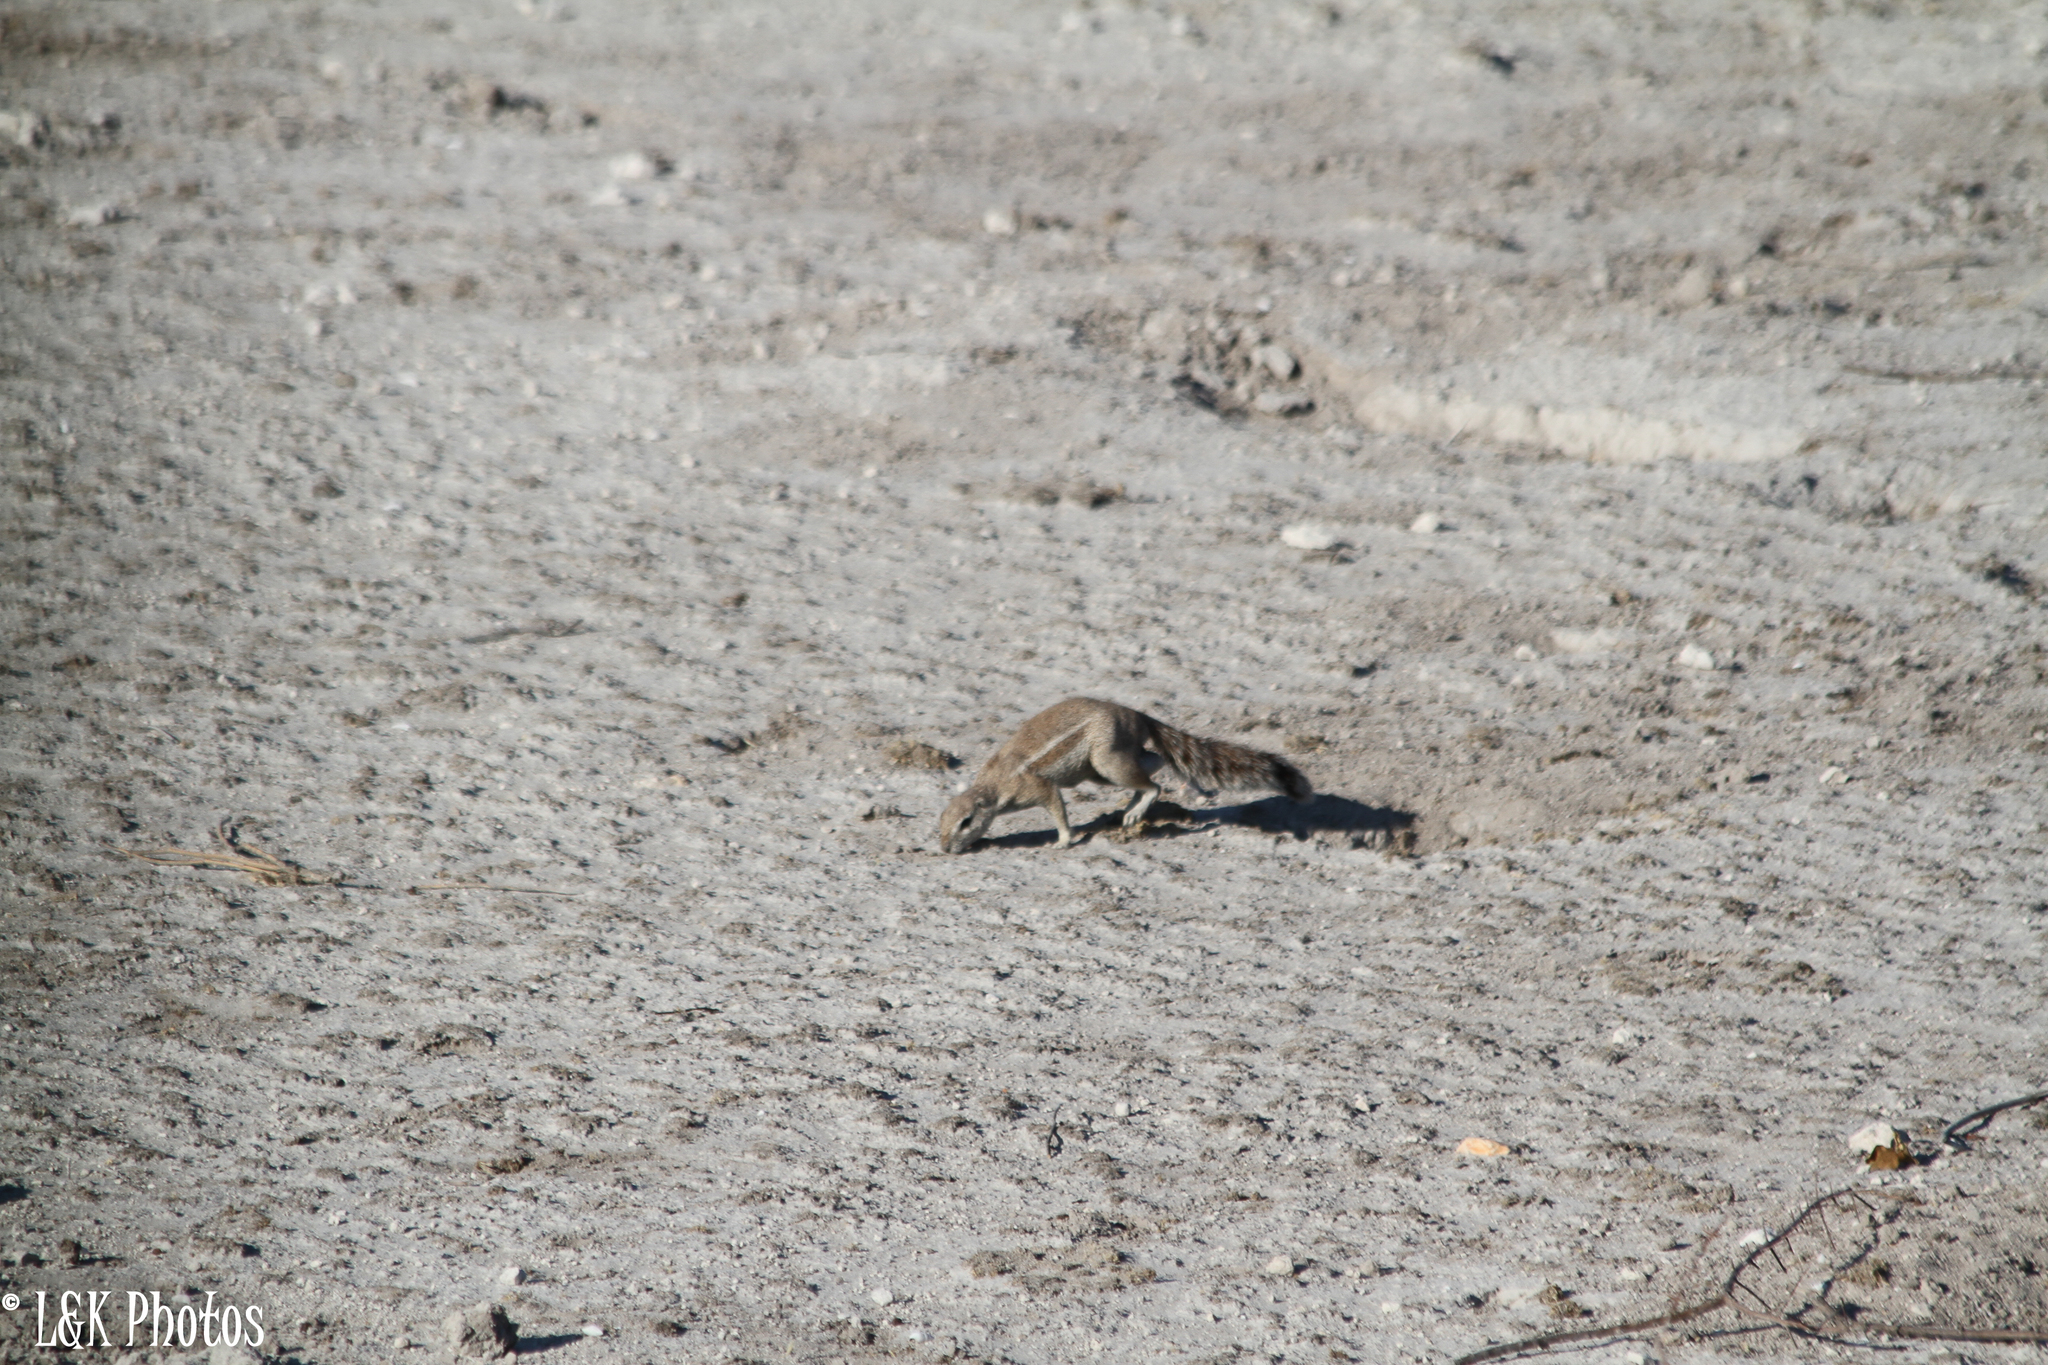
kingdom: Animalia
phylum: Chordata
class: Mammalia
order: Rodentia
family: Sciuridae
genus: Xerus
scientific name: Xerus inauris
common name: South african ground squirrel
